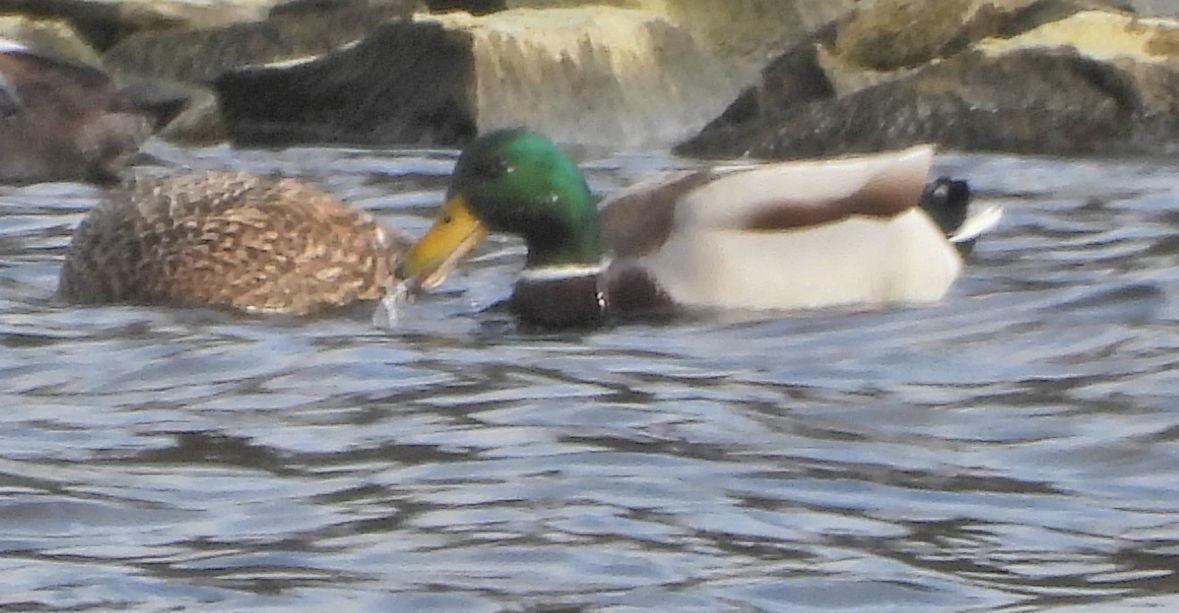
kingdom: Animalia
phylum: Chordata
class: Aves
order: Anseriformes
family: Anatidae
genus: Anas
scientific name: Anas platyrhynchos
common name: Mallard
